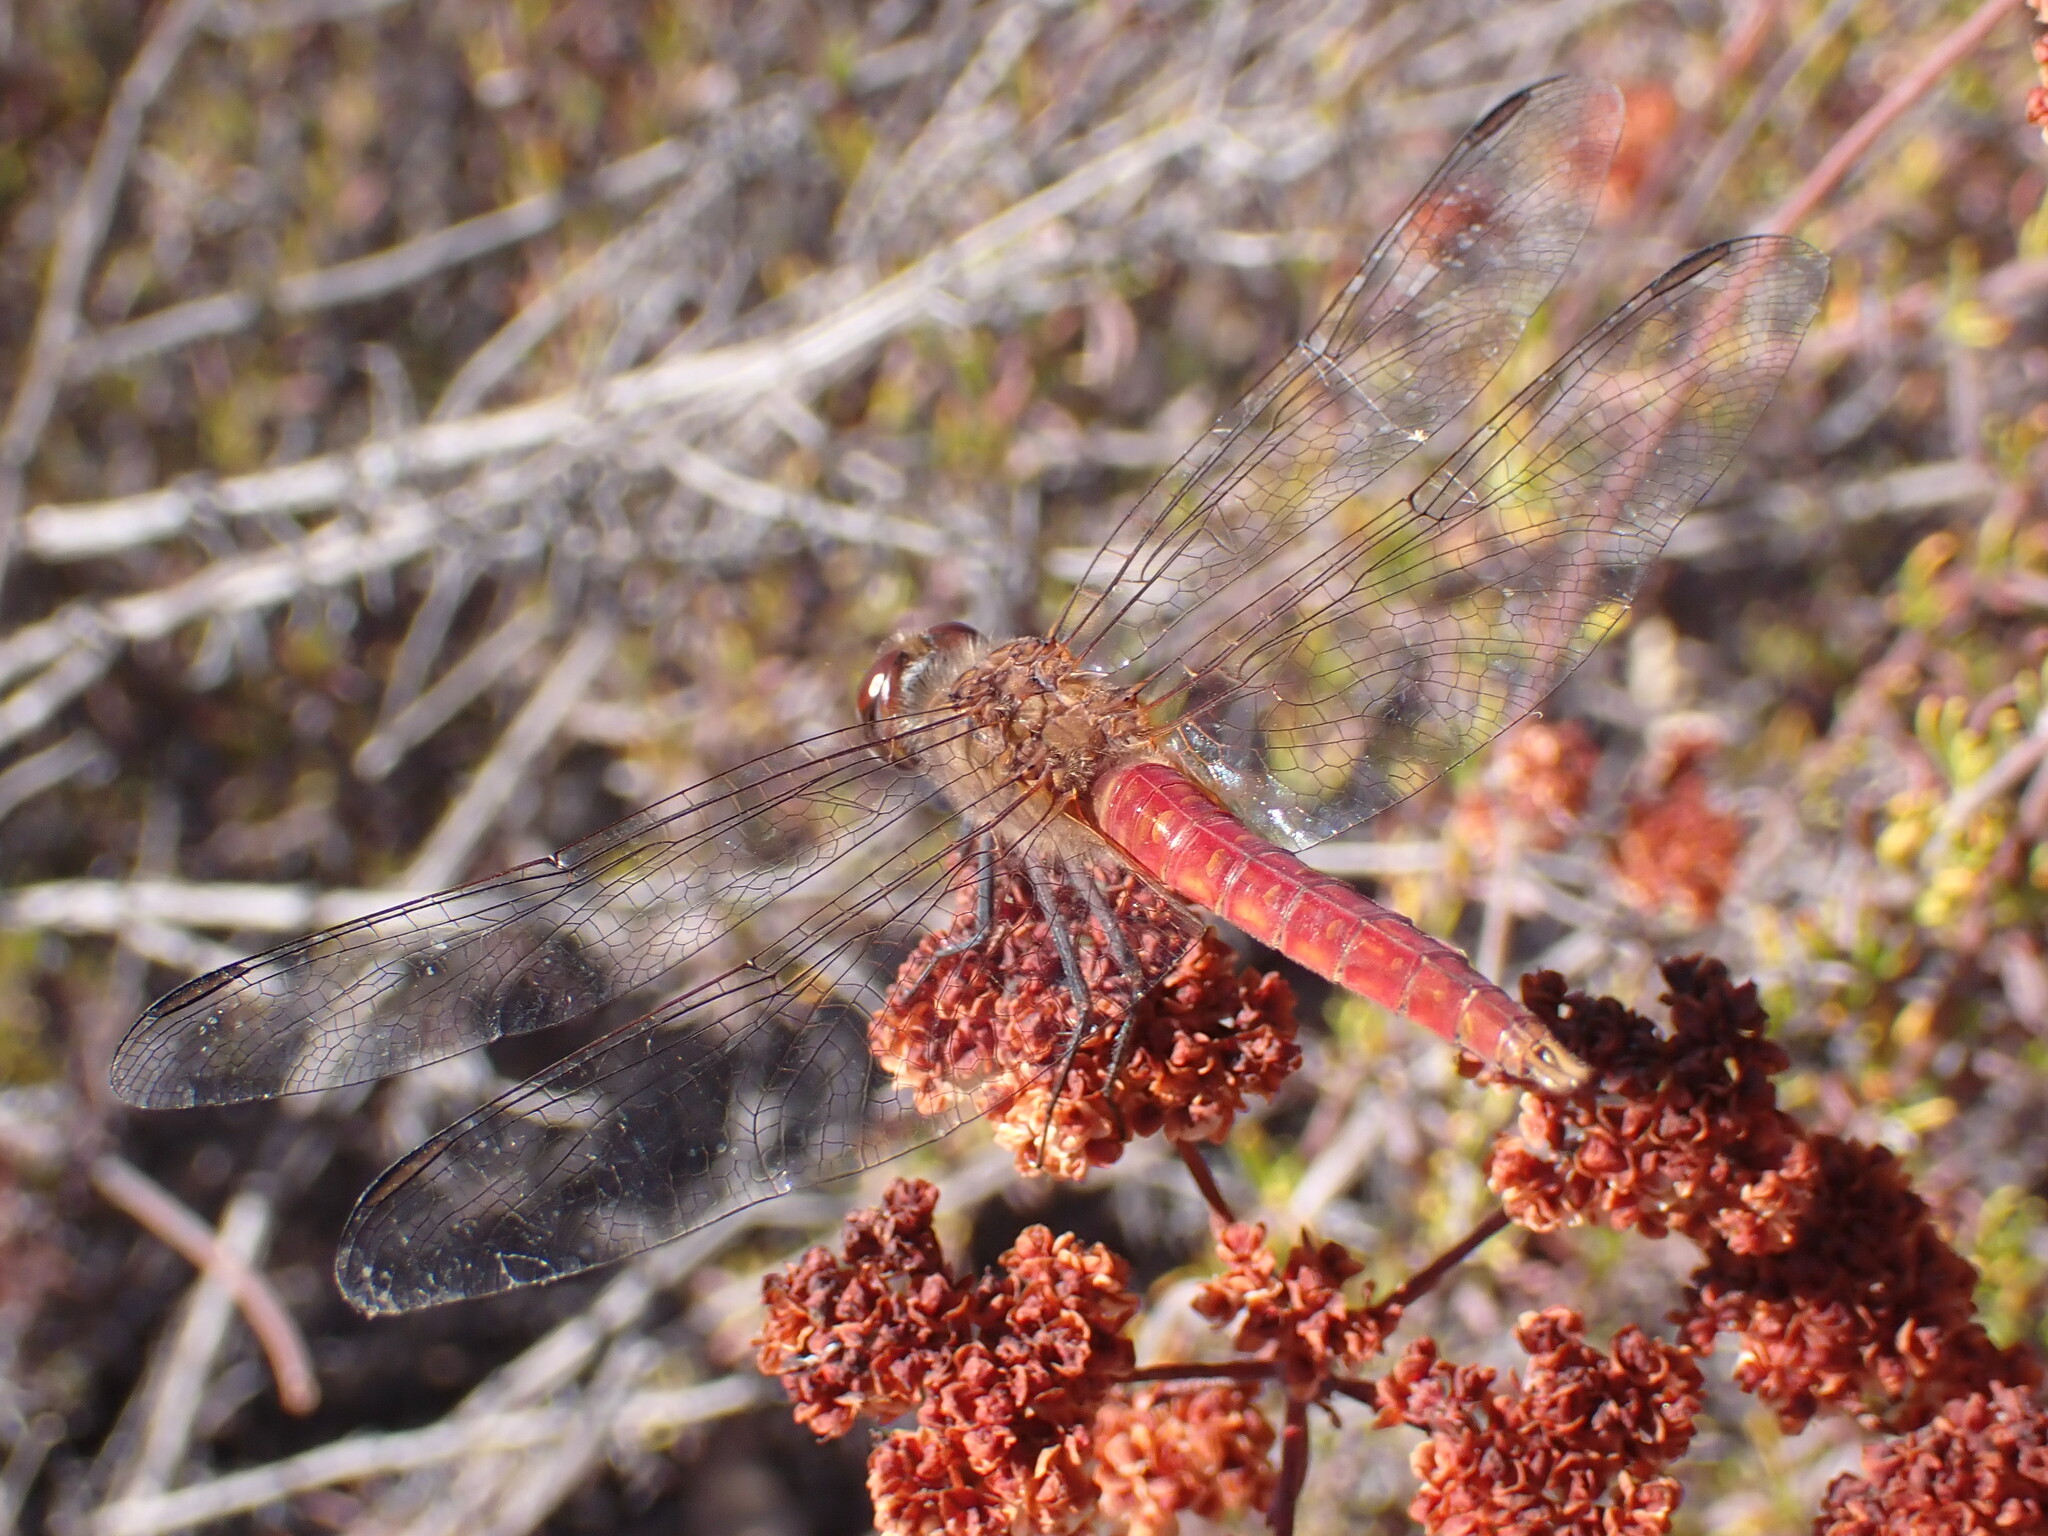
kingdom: Animalia
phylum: Arthropoda
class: Insecta
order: Odonata
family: Libellulidae
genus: Brachymesia
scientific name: Brachymesia furcata
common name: Red-taled pennant
